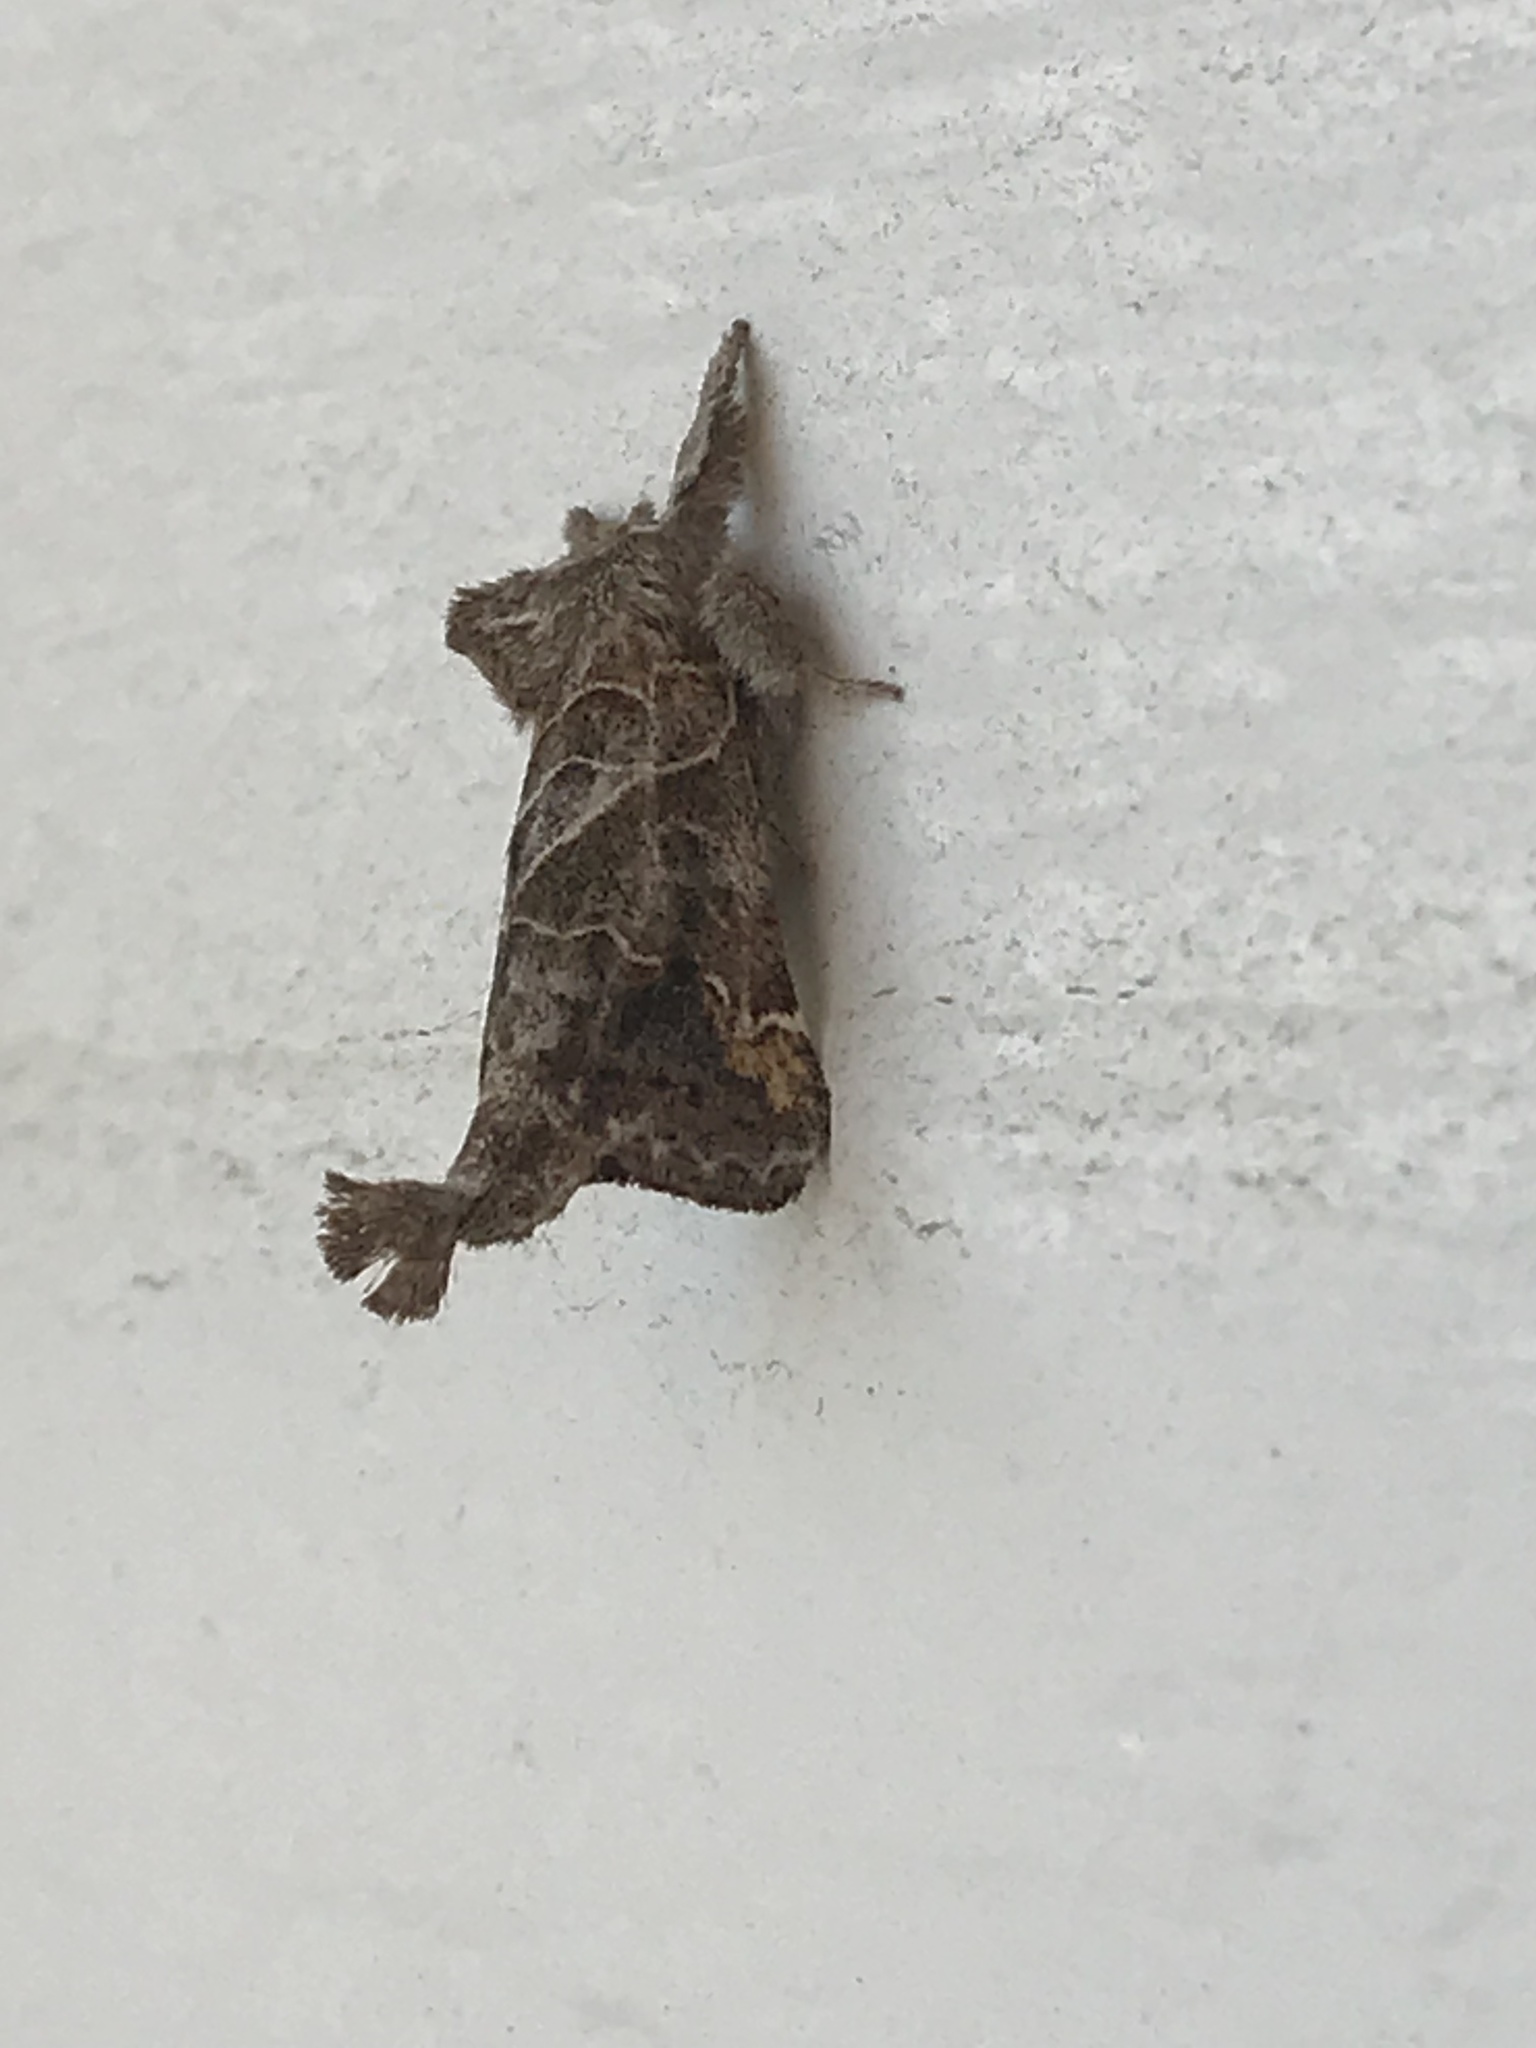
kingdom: Animalia
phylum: Arthropoda
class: Insecta
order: Lepidoptera
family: Notodontidae
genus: Clostera
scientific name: Clostera strigosa
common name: Striped chocolate-tip moth
